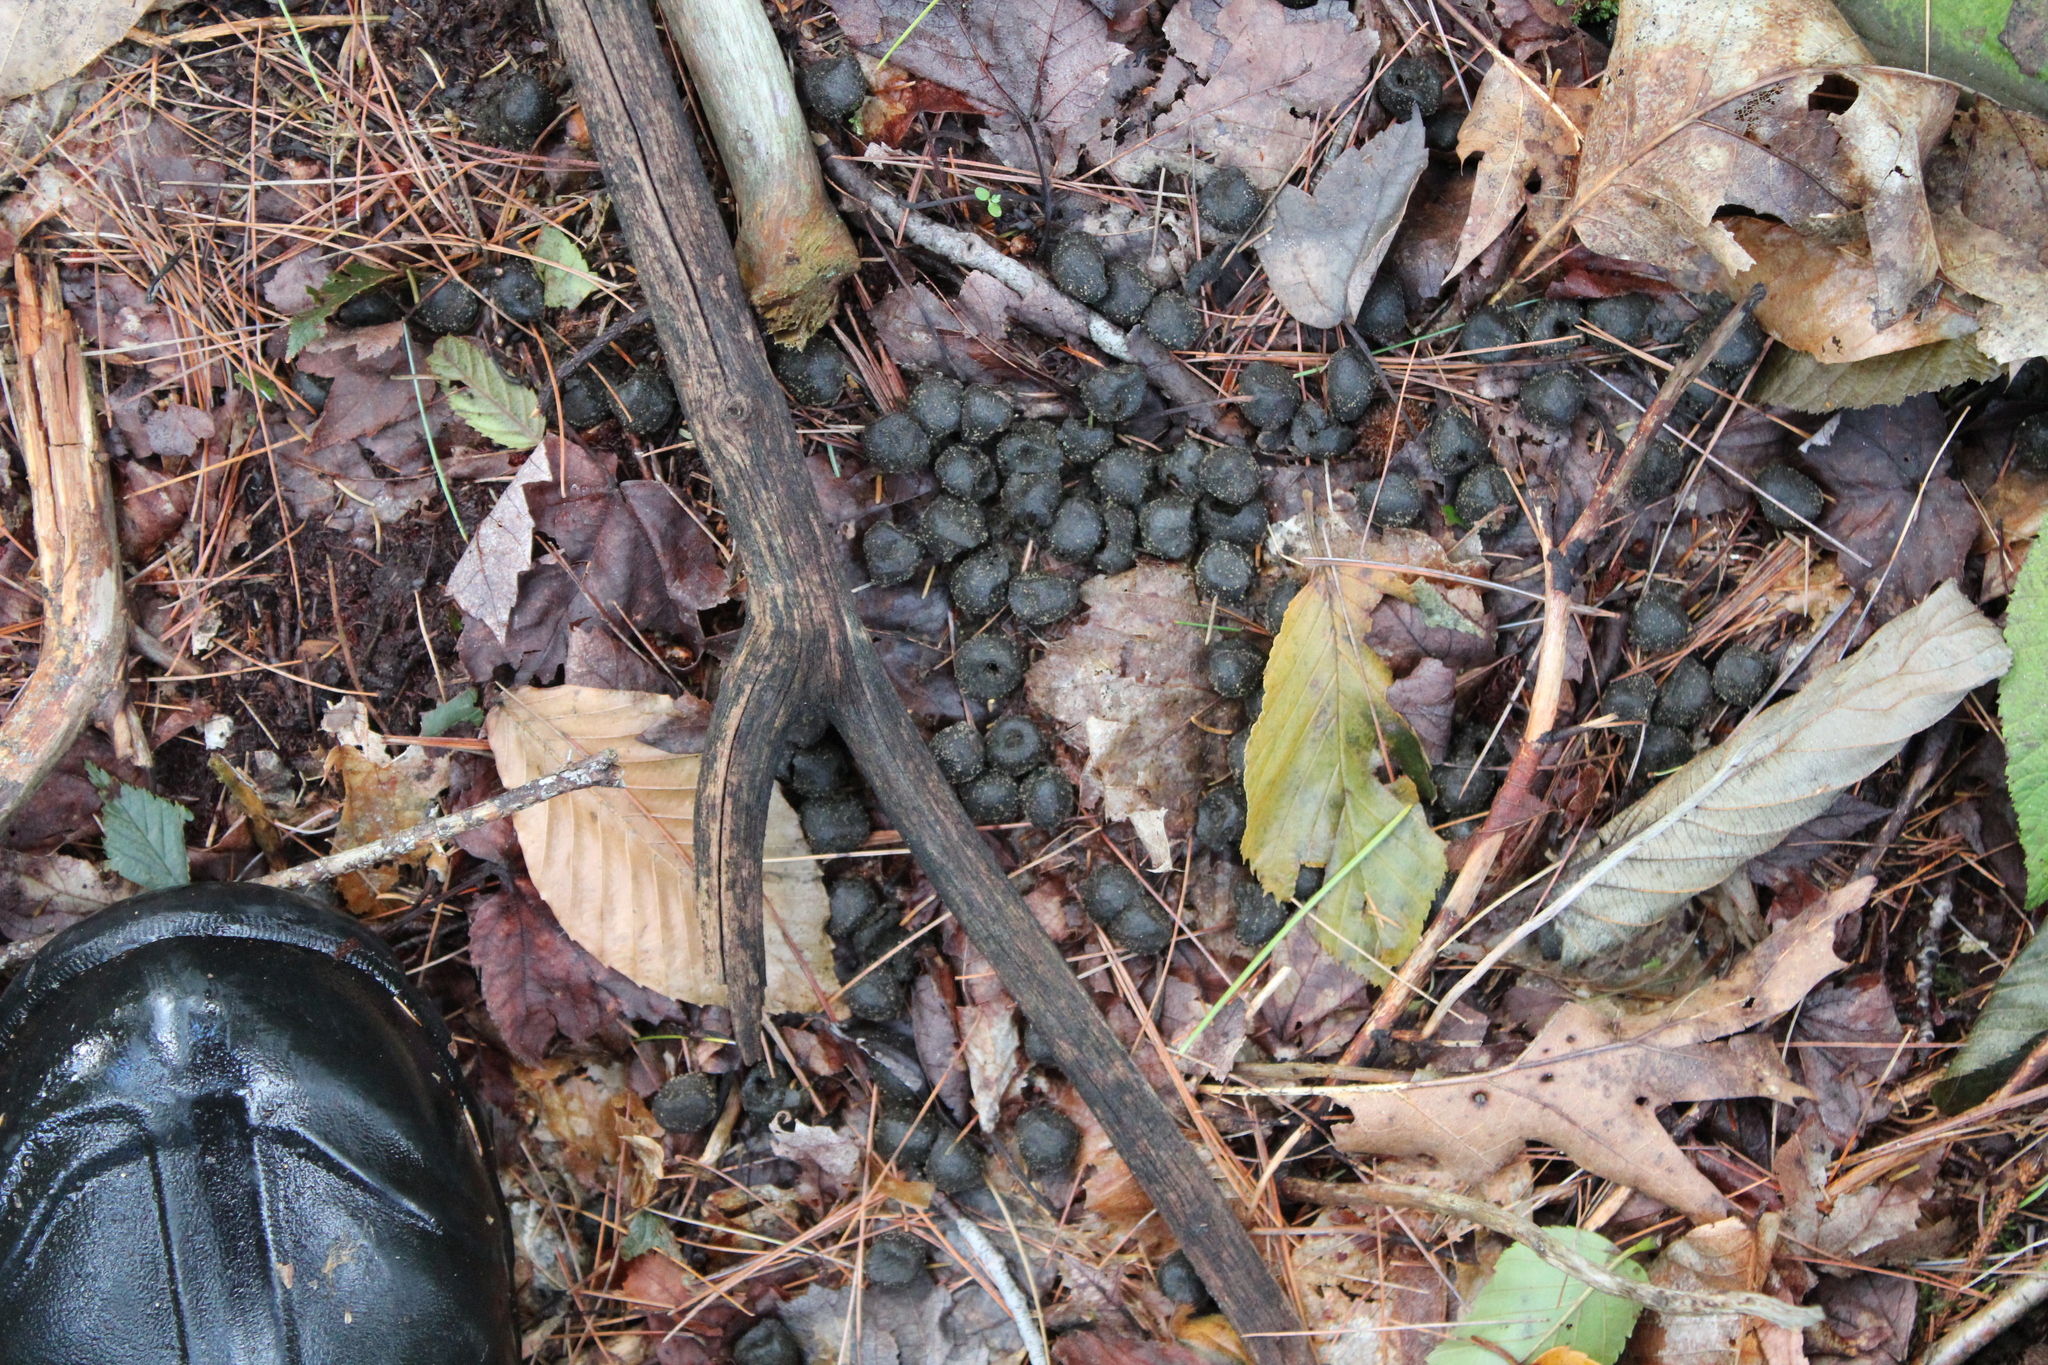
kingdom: Animalia
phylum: Chordata
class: Mammalia
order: Artiodactyla
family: Cervidae
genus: Odocoileus
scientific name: Odocoileus virginianus
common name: White-tailed deer
